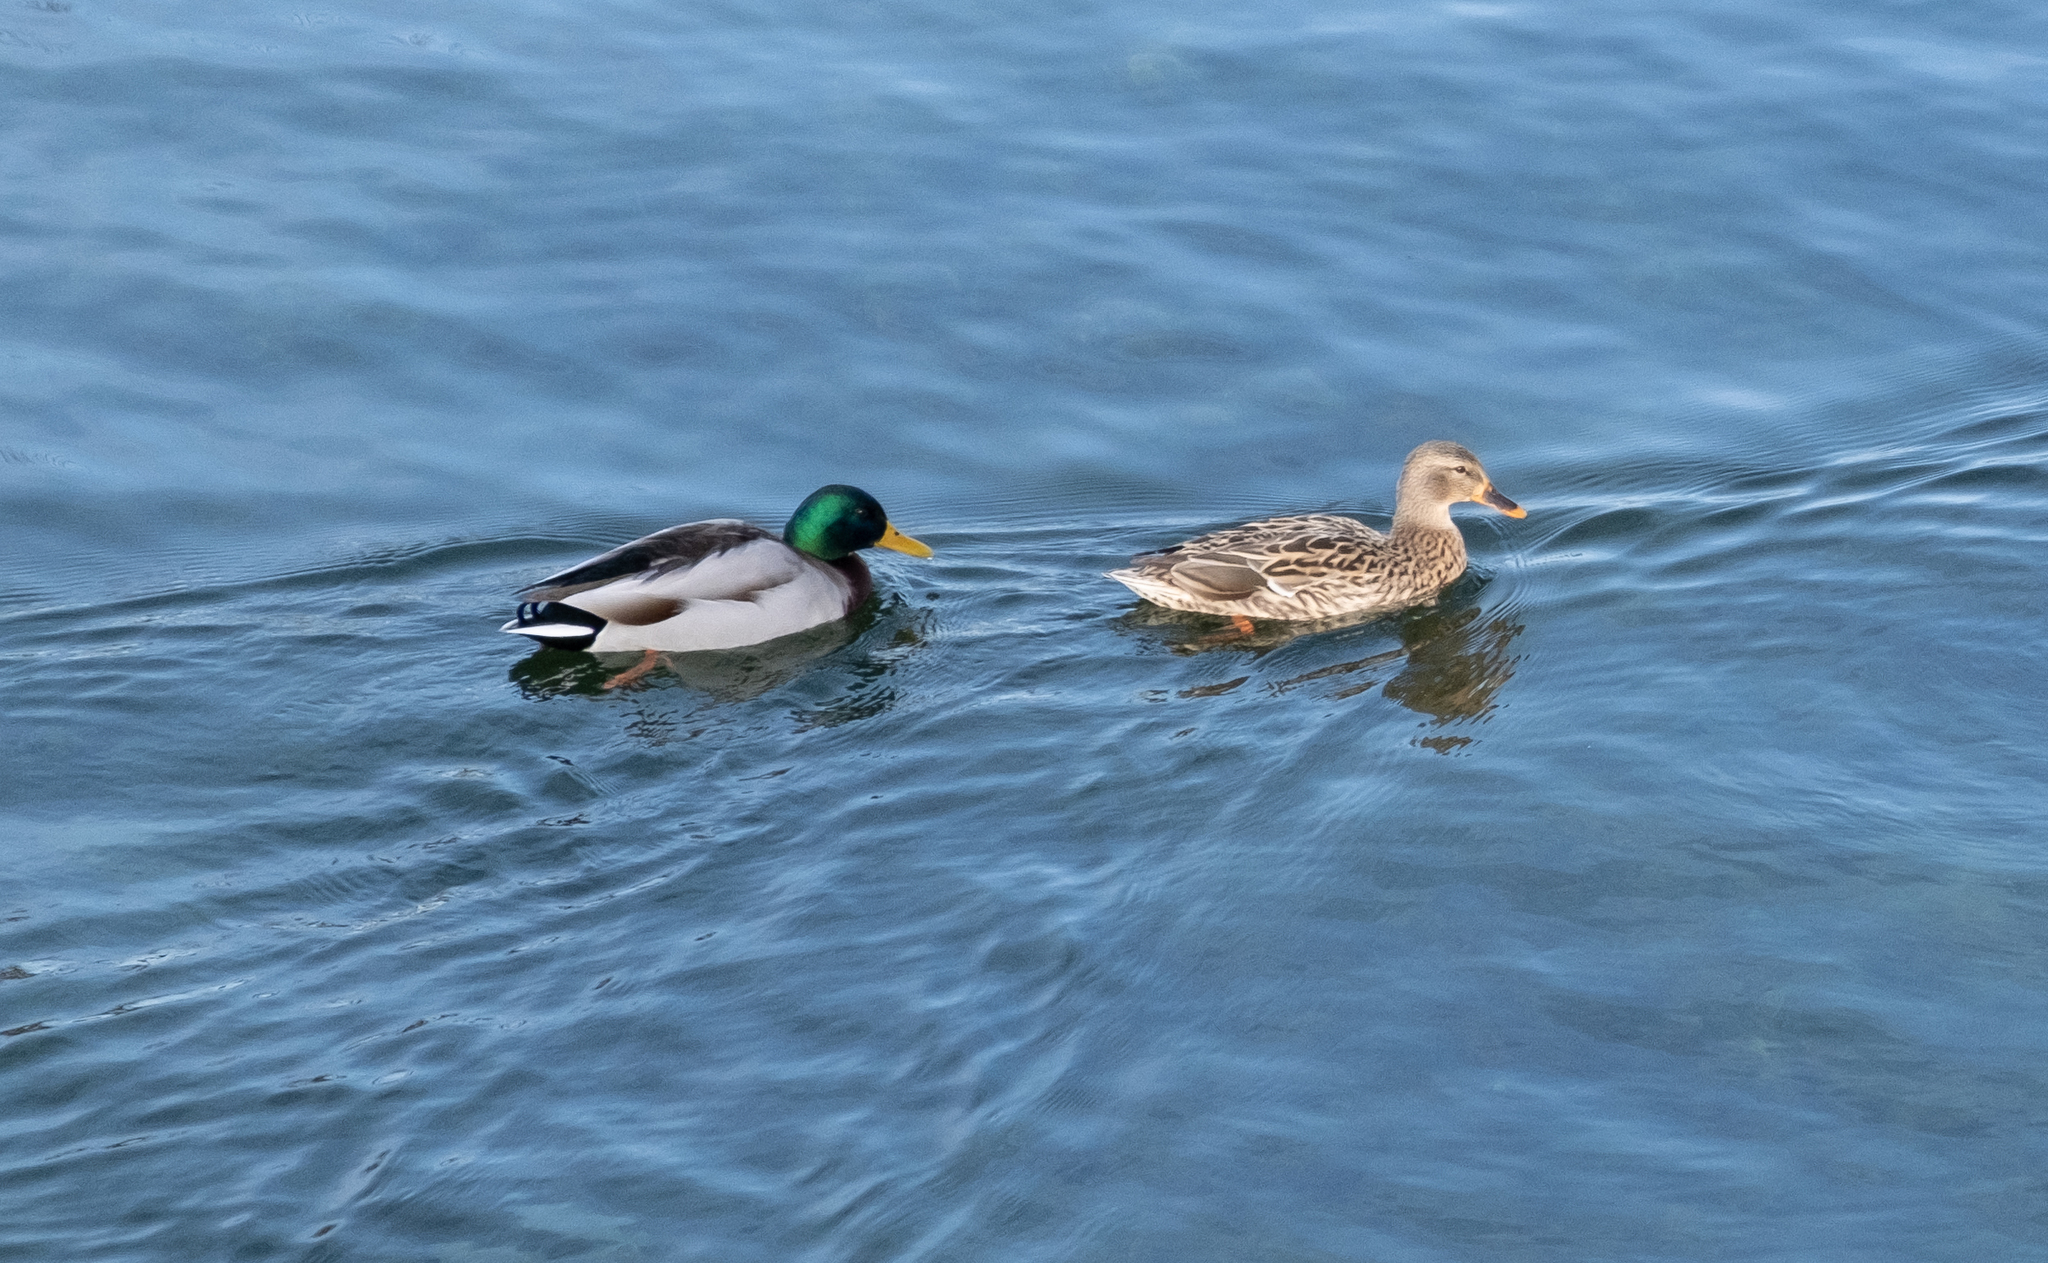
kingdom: Animalia
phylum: Chordata
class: Aves
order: Anseriformes
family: Anatidae
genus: Anas
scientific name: Anas platyrhynchos
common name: Mallard
